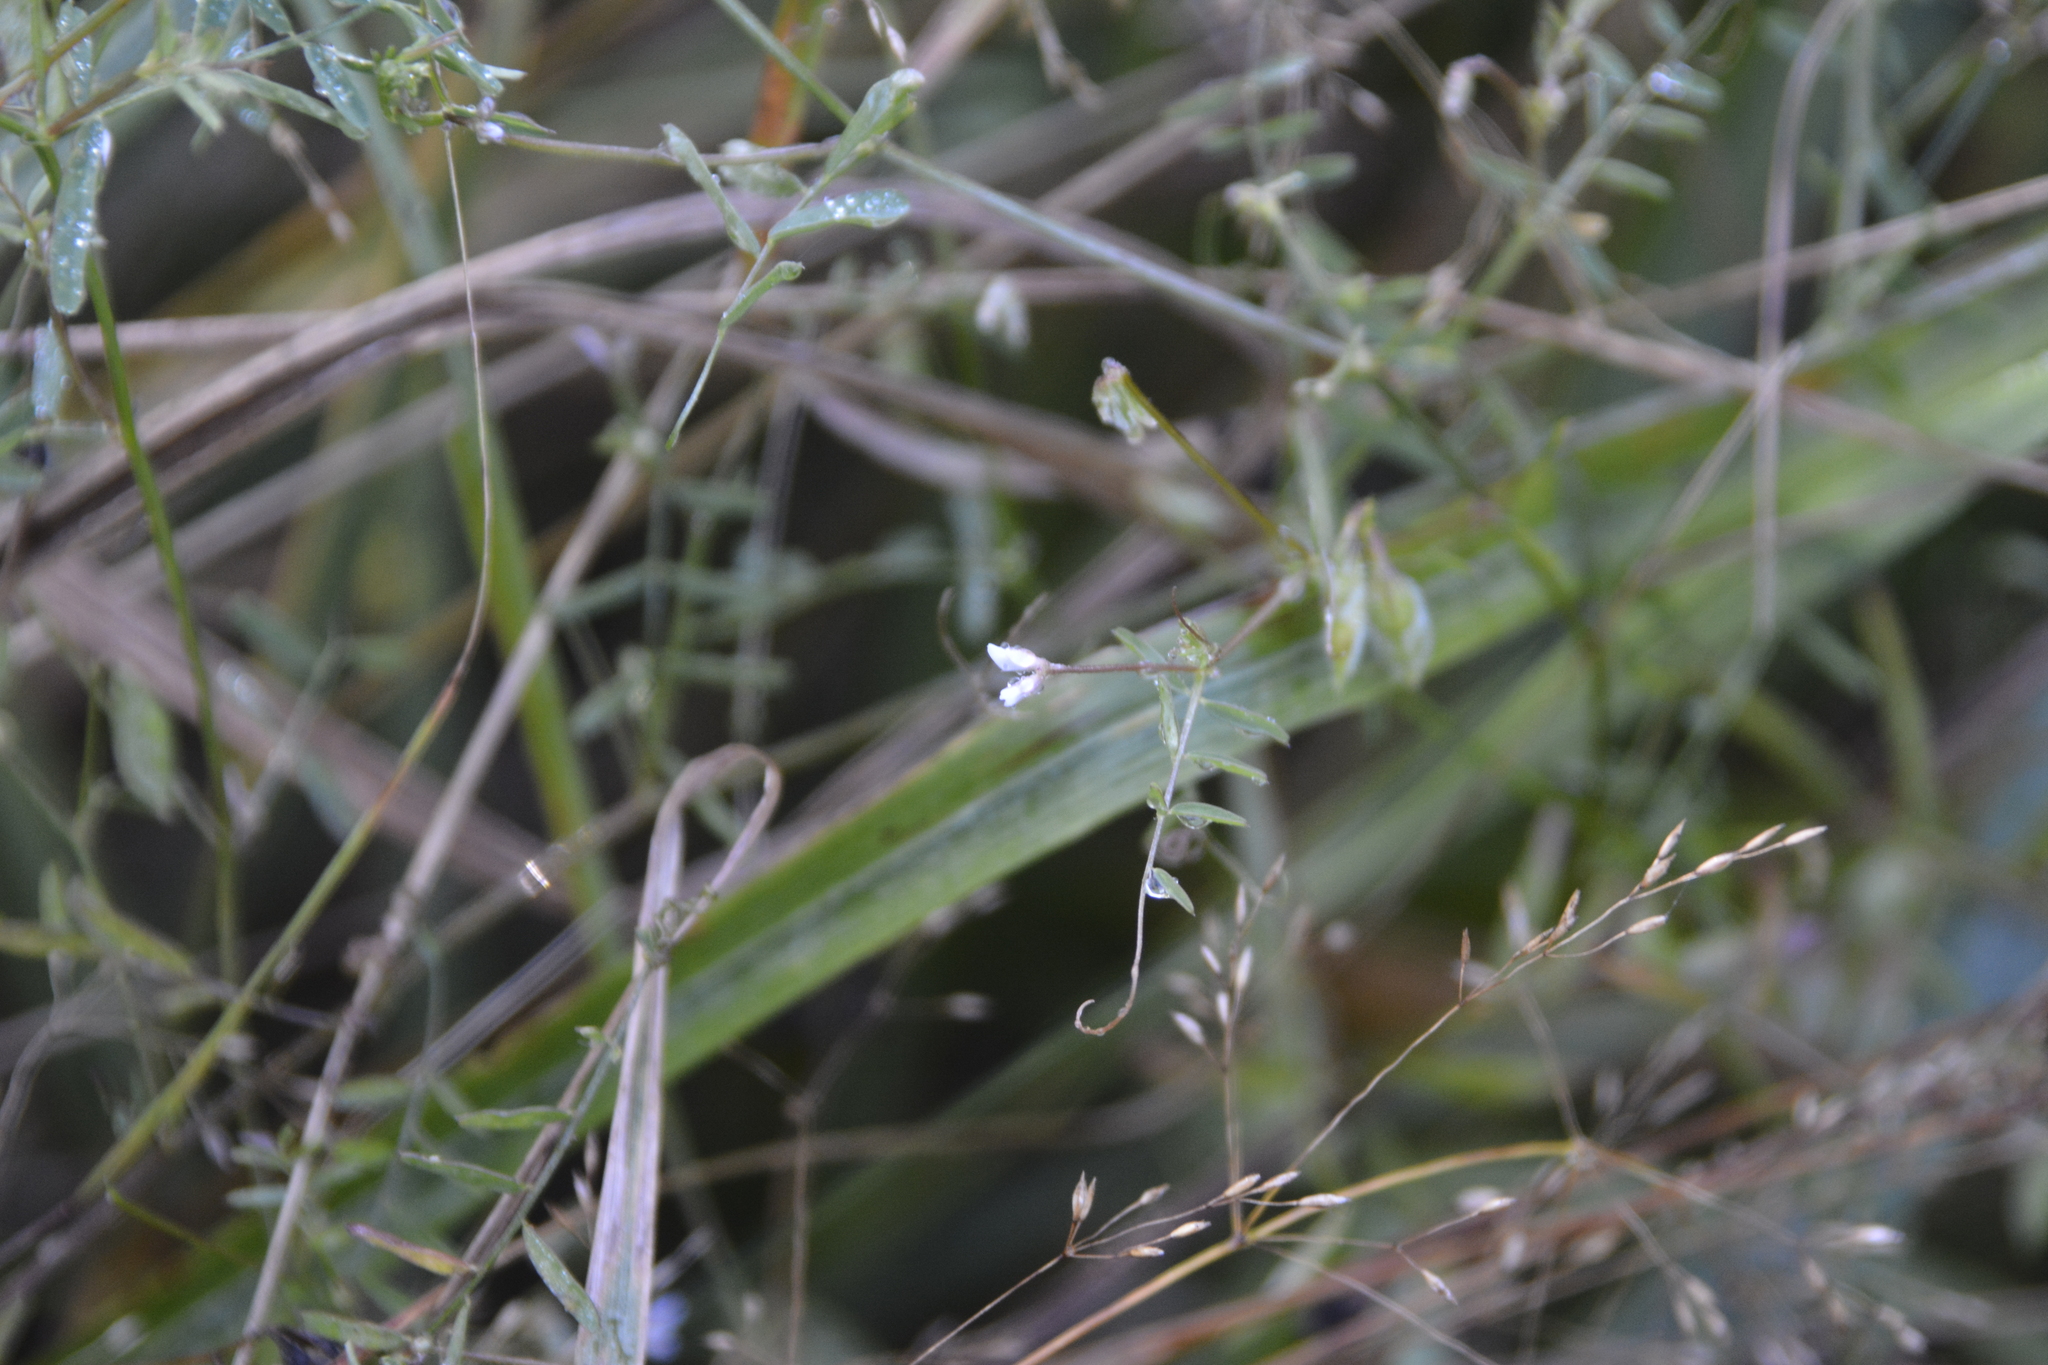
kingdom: Plantae
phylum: Tracheophyta
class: Magnoliopsida
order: Fabales
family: Fabaceae
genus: Vicia
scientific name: Vicia hirsuta
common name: Tiny vetch
